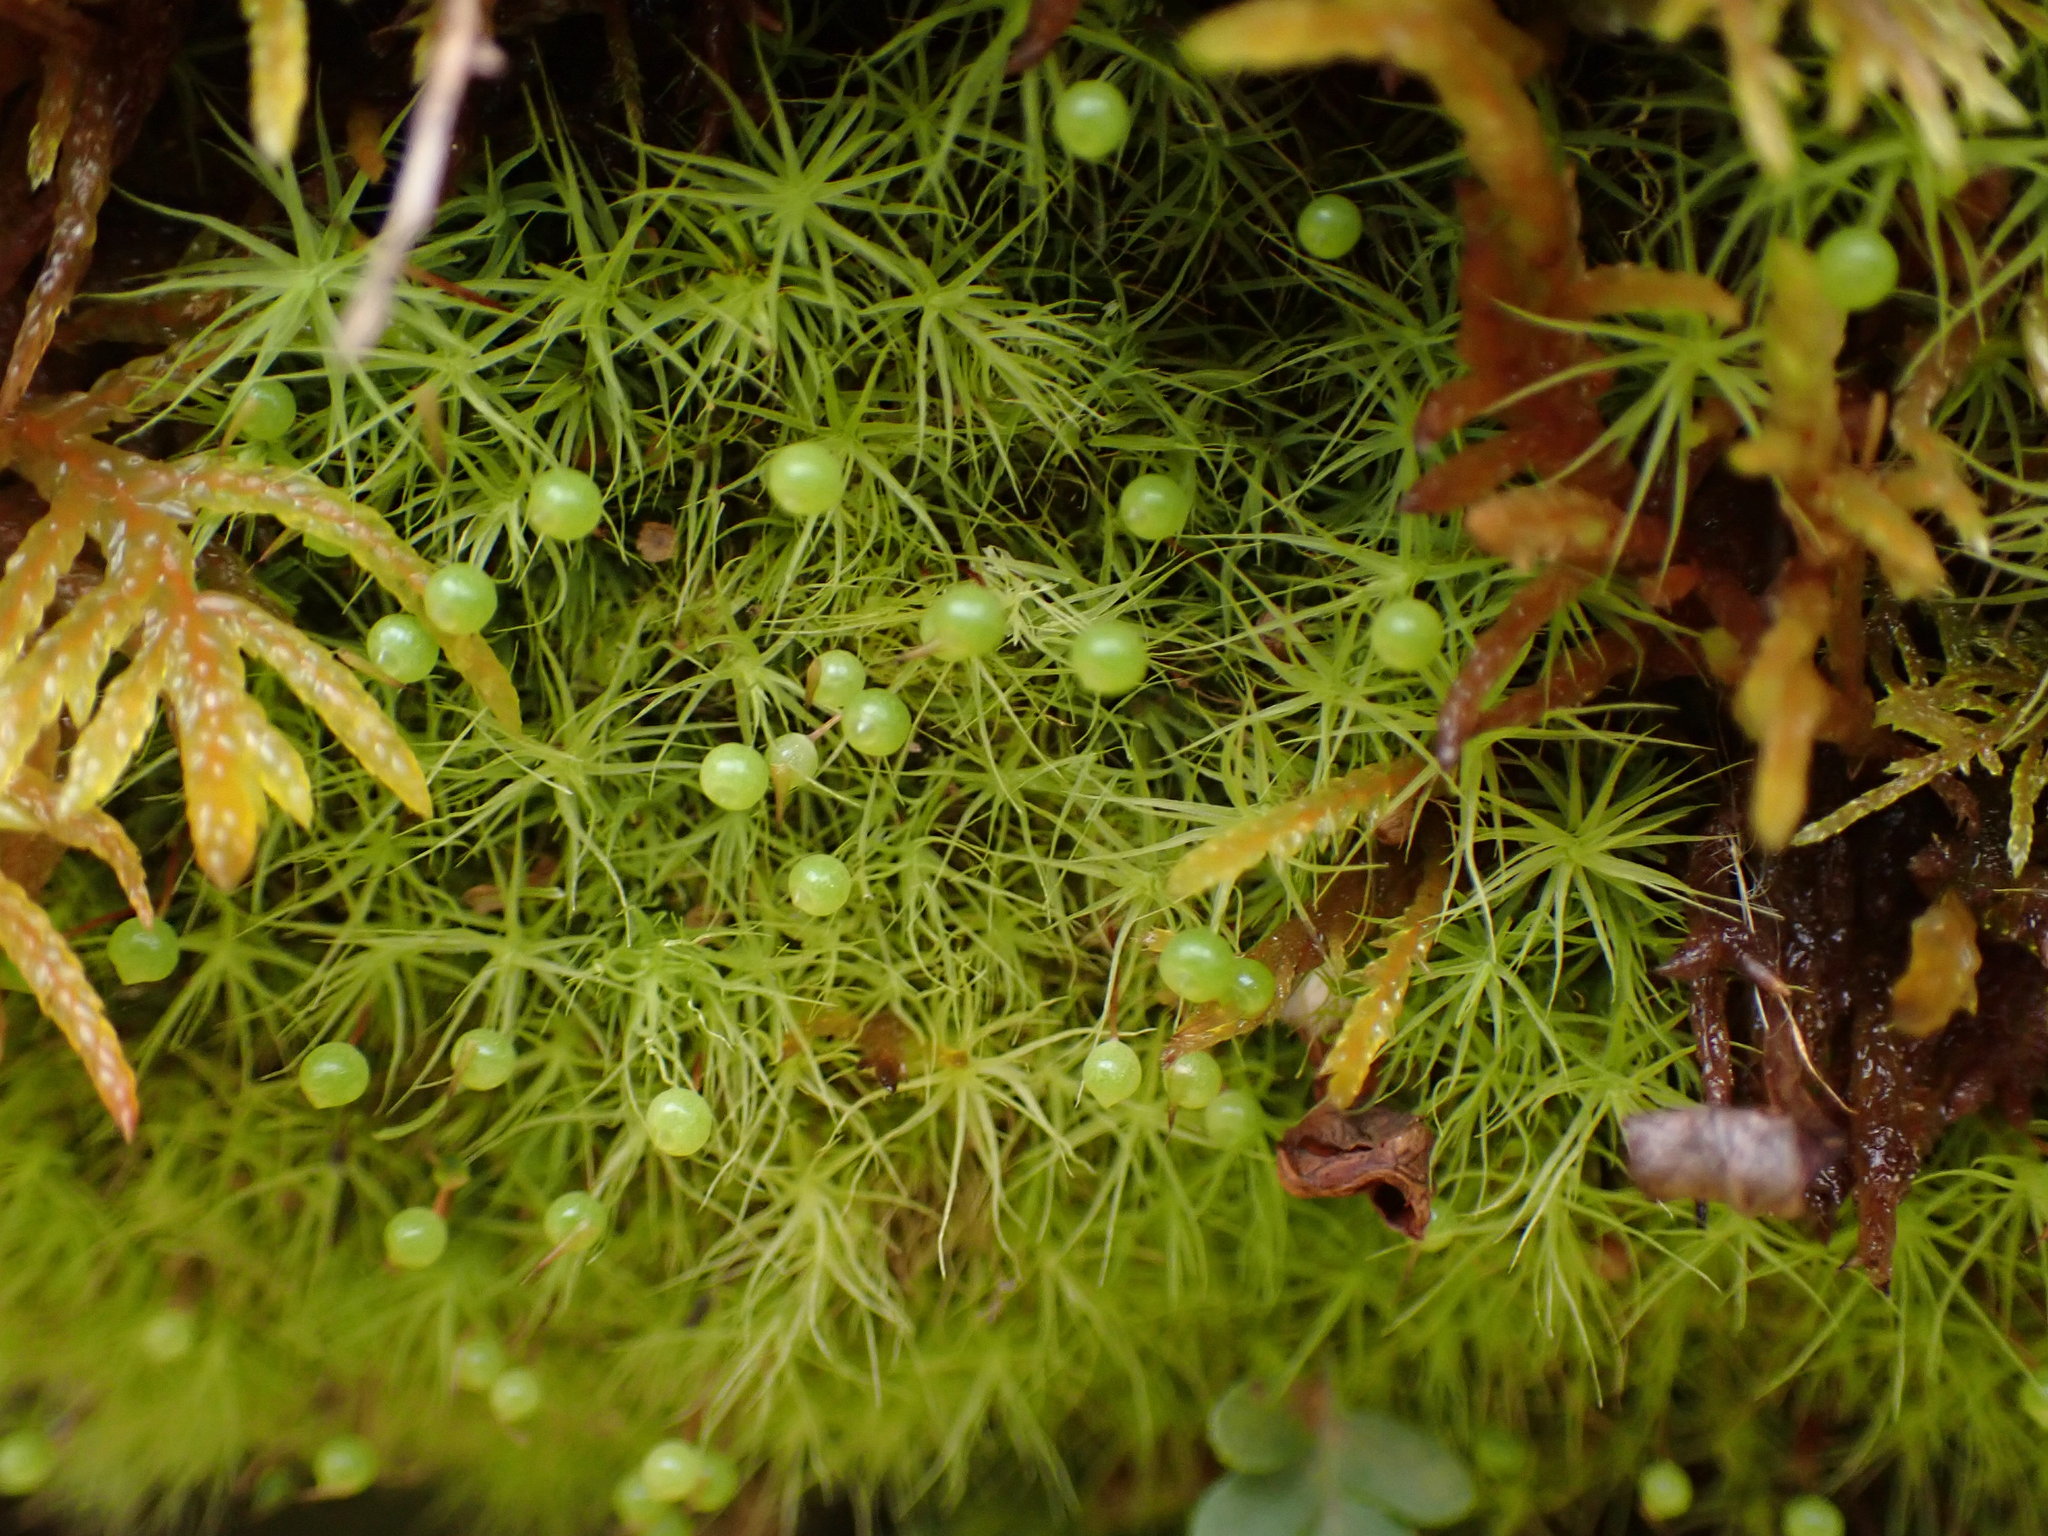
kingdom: Plantae
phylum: Bryophyta
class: Bryopsida
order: Bartramiales
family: Bartramiaceae
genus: Bartramia
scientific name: Bartramia ithyphylla
